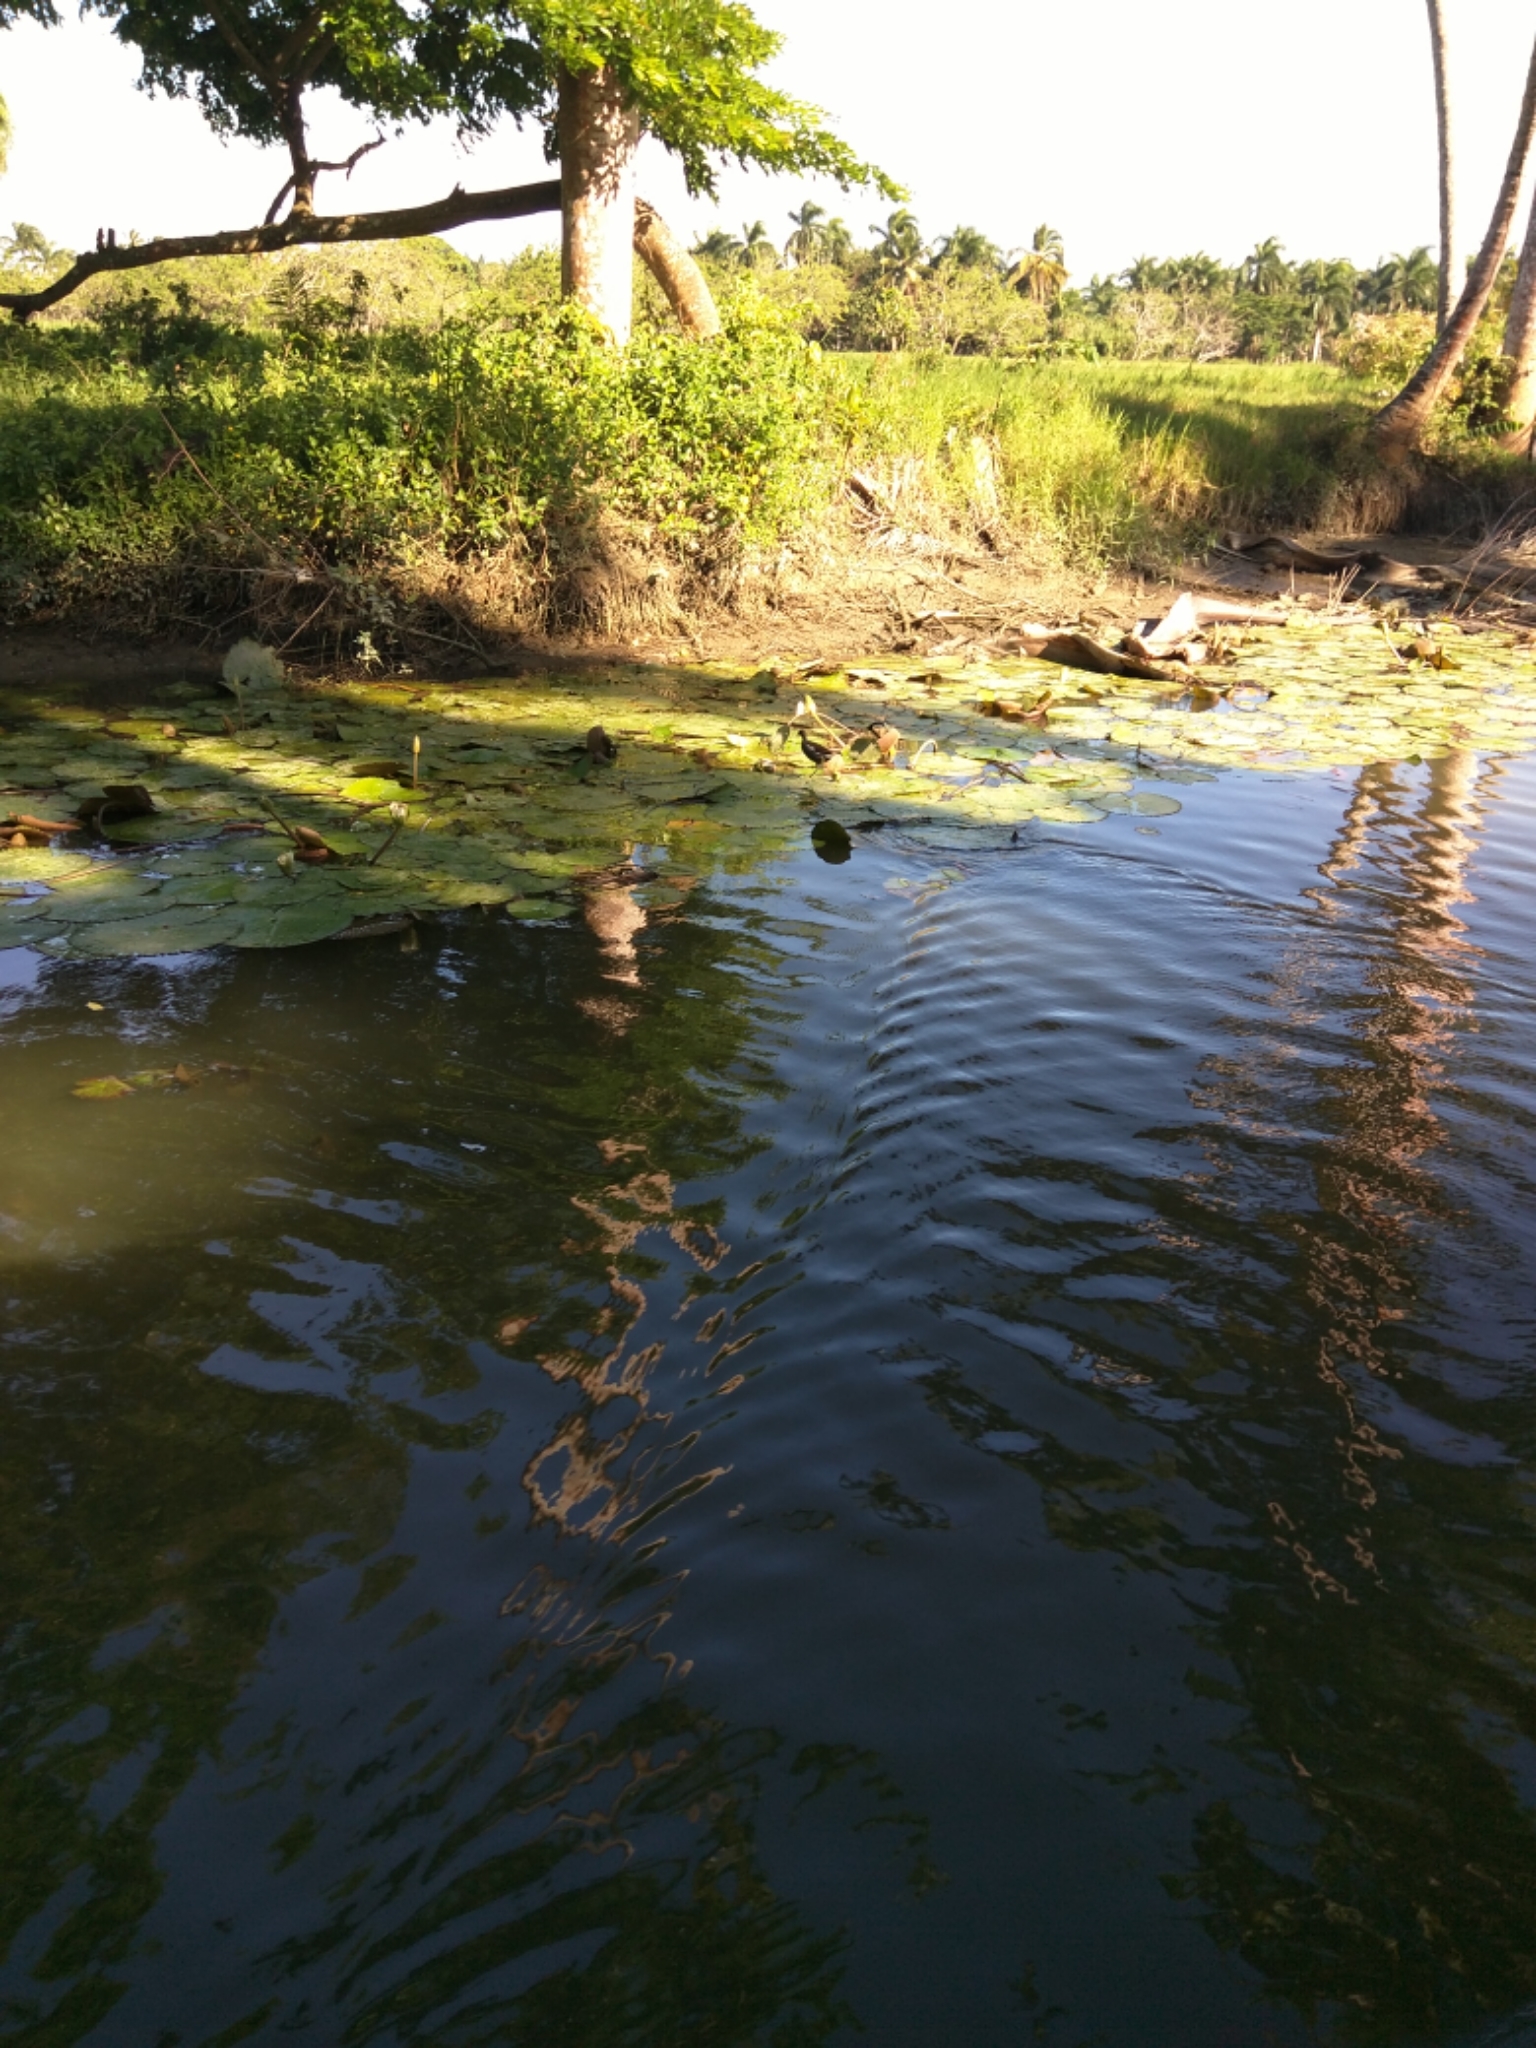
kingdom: Animalia
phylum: Chordata
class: Aves
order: Gruiformes
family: Rallidae
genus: Gallinula
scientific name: Gallinula chloropus
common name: Common moorhen
